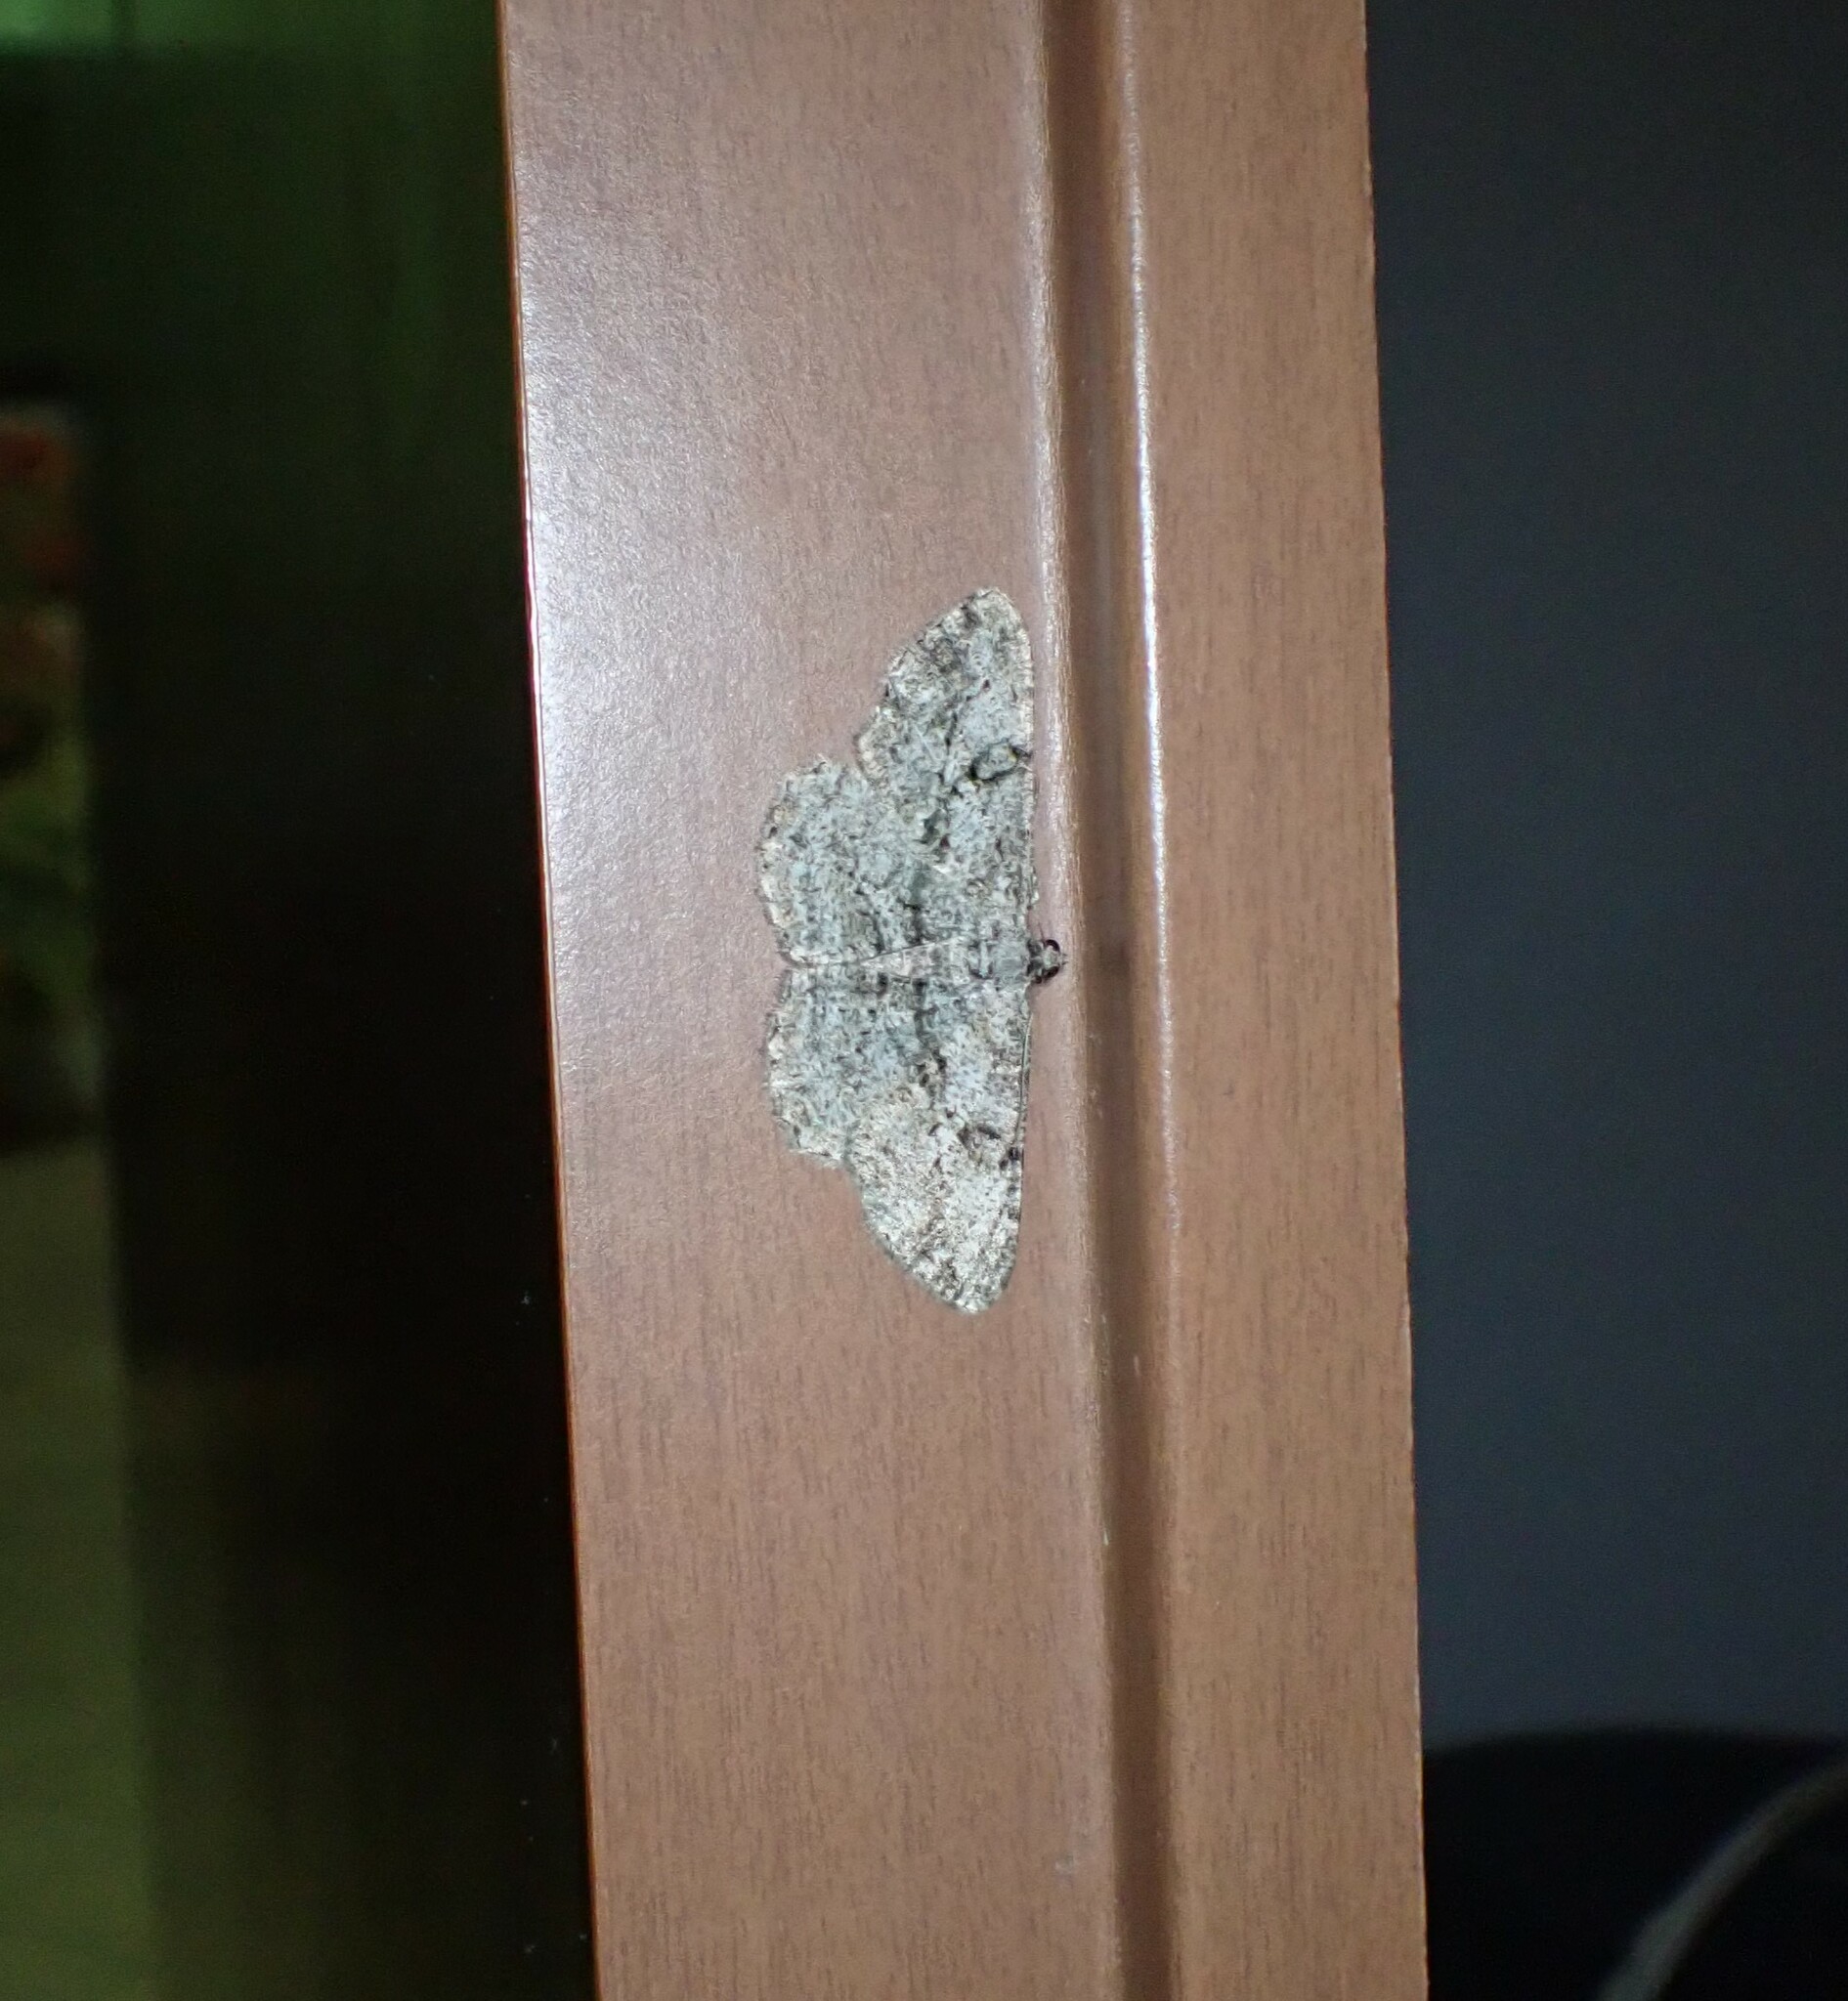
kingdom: Animalia
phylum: Arthropoda
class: Insecta
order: Lepidoptera
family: Geometridae
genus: Peribatodes
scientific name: Peribatodes rhomboidaria
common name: Willow beauty
